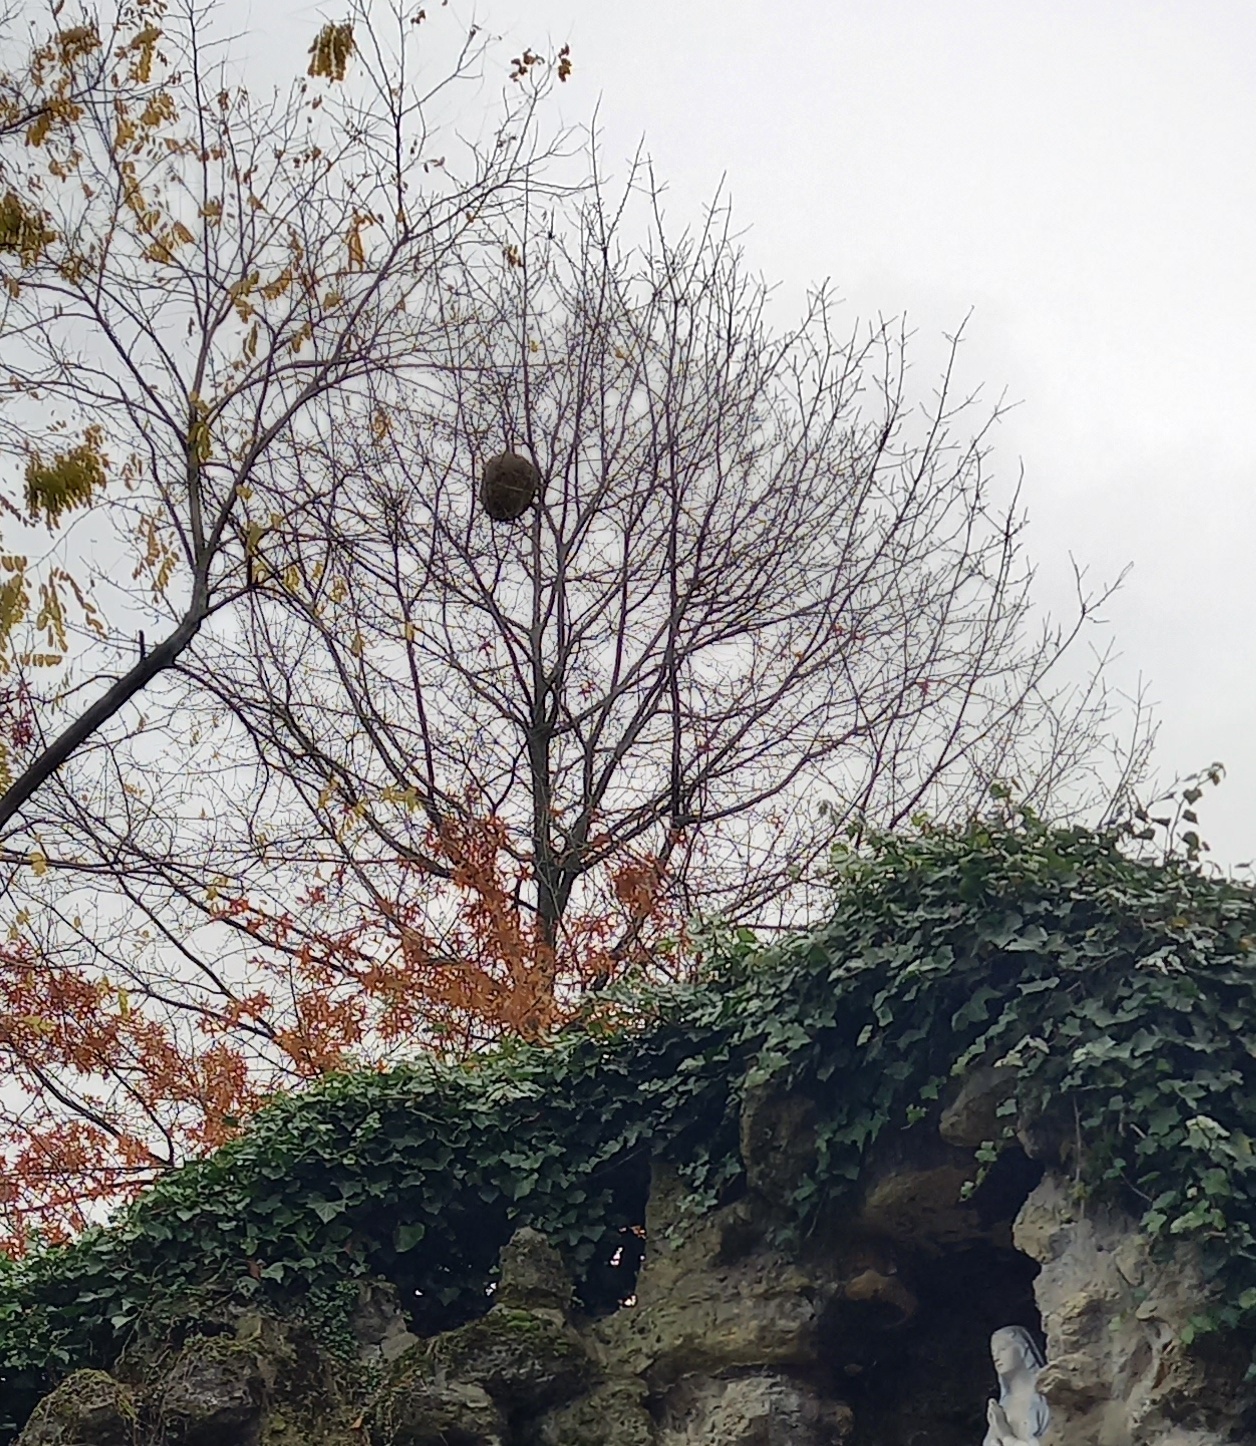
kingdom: Animalia
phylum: Arthropoda
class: Insecta
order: Hymenoptera
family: Vespidae
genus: Vespa
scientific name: Vespa velutina
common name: Asian hornet
